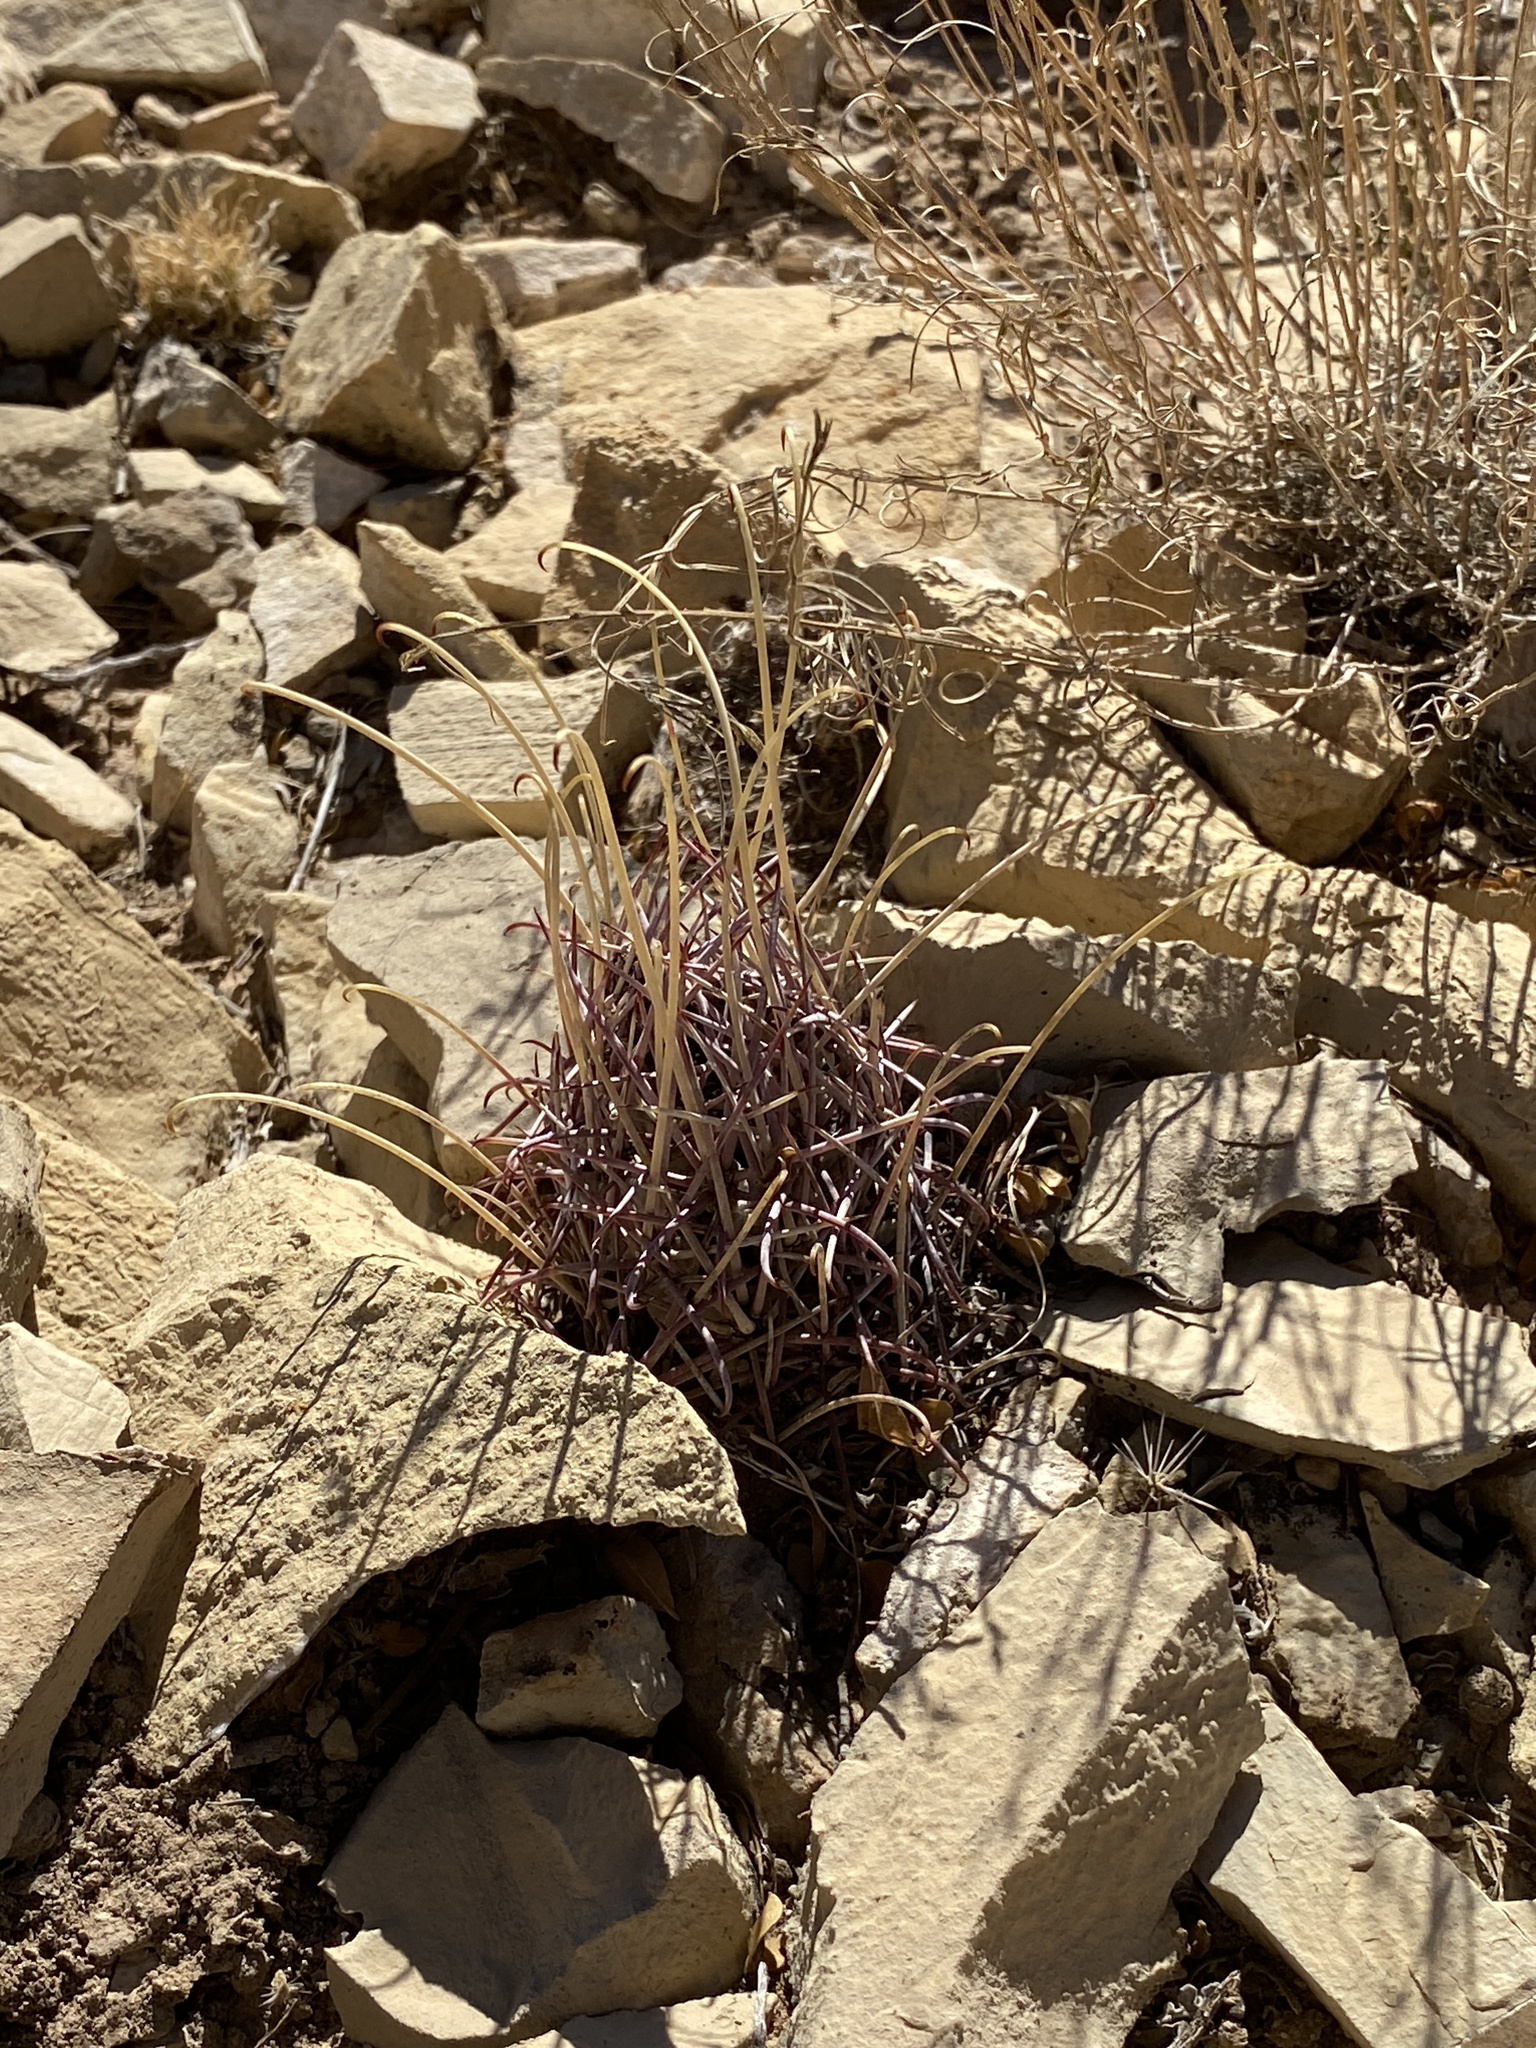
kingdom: Plantae
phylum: Tracheophyta
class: Magnoliopsida
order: Caryophyllales
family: Cactaceae
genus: Ferocactus
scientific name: Ferocactus uncinatus
